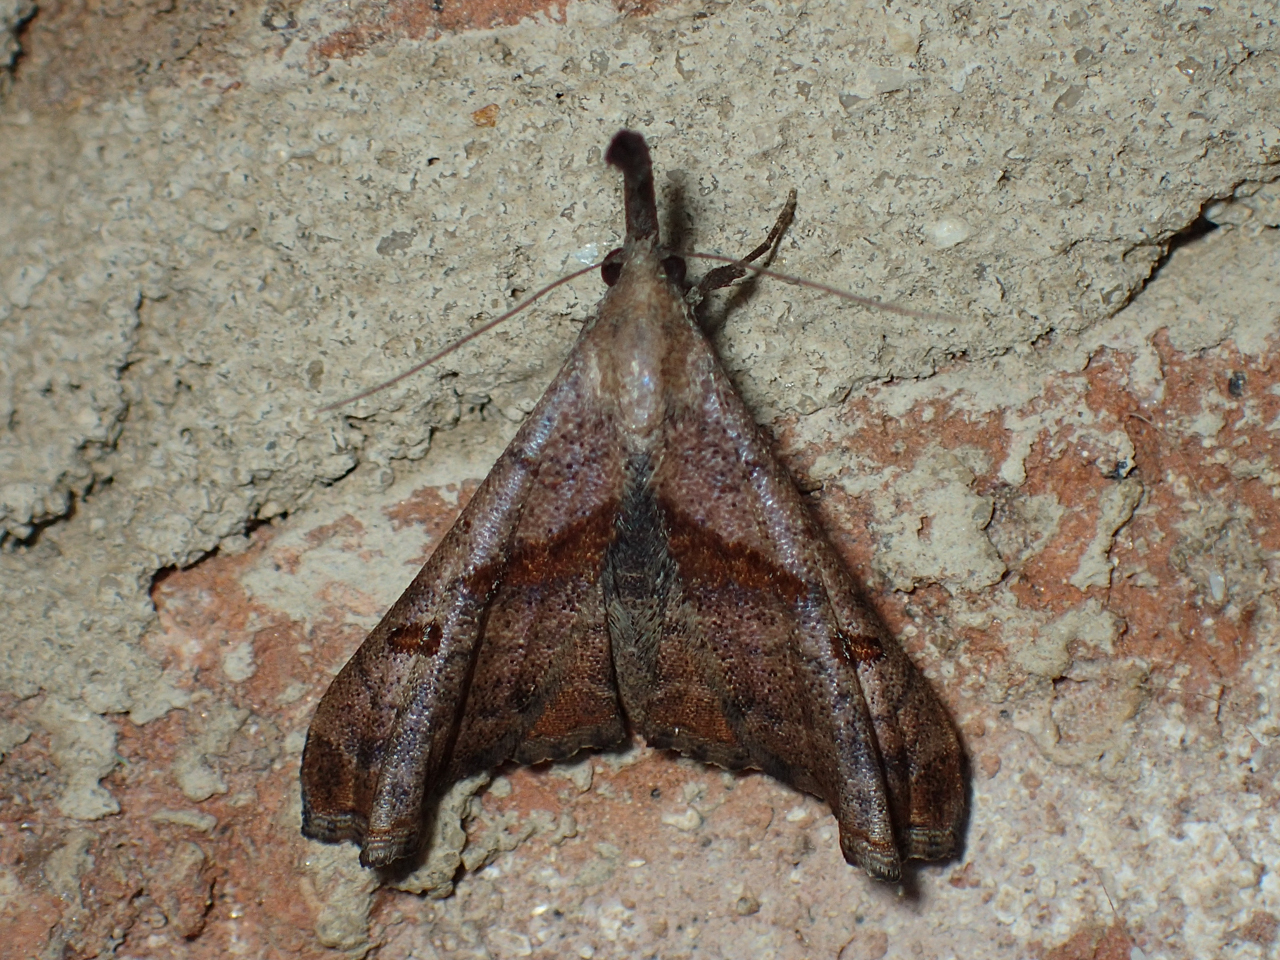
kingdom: Animalia
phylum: Arthropoda
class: Insecta
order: Lepidoptera
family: Erebidae
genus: Palthis
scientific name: Palthis angulalis
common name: Dark-spotted palthis moth
